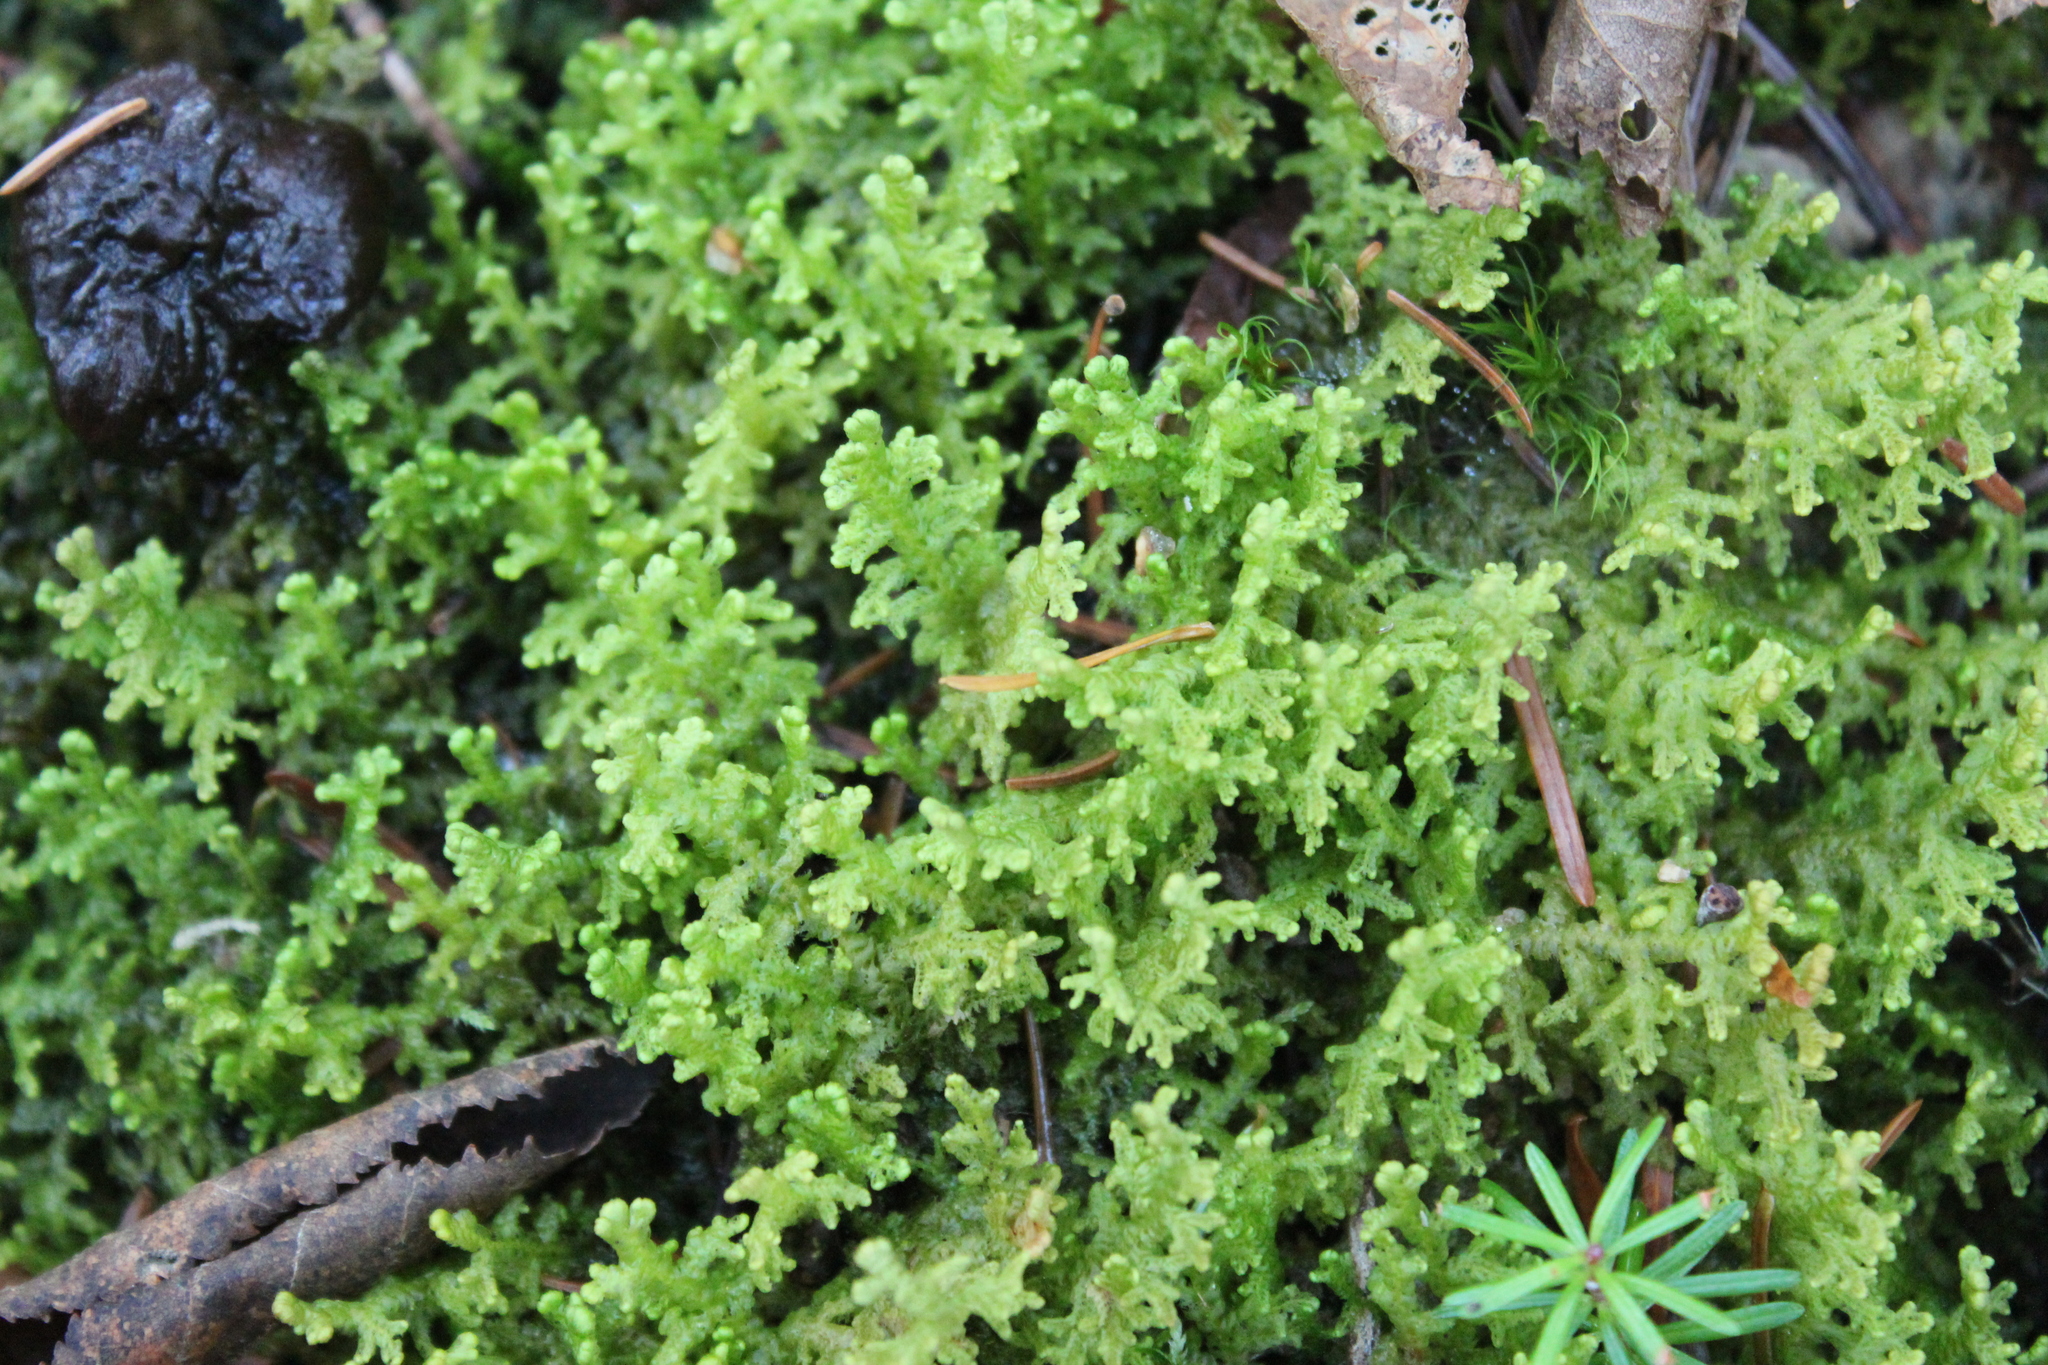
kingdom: Plantae
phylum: Marchantiophyta
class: Jungermanniopsida
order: Ptilidiales
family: Ptilidiaceae
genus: Ptilidium
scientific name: Ptilidium ciliare
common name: Ciliate fringewort
